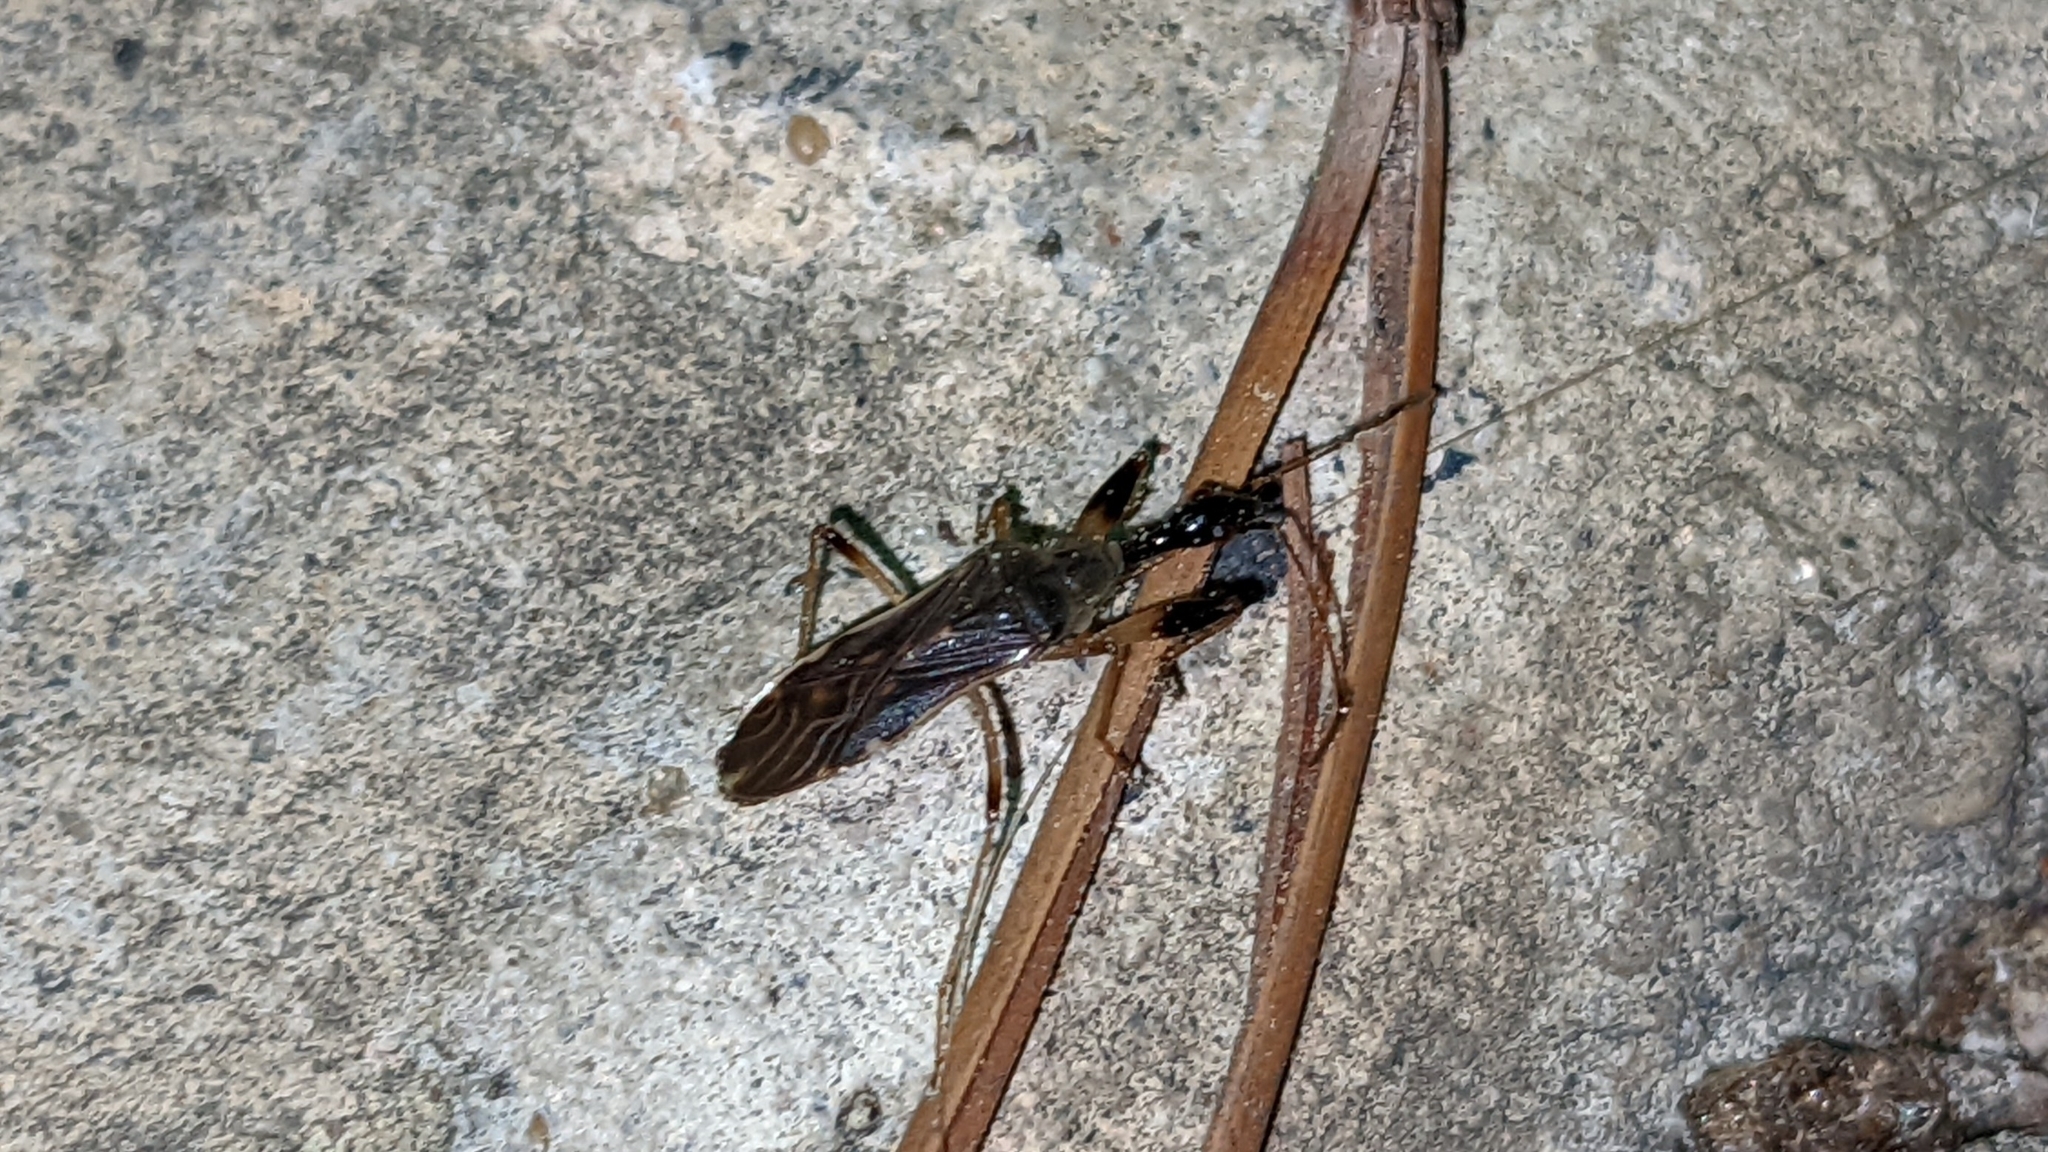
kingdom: Animalia
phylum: Arthropoda
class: Insecta
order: Hemiptera
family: Rhyparochromidae
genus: Myodocha
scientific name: Myodocha serripes
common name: Long-necked seed bug
